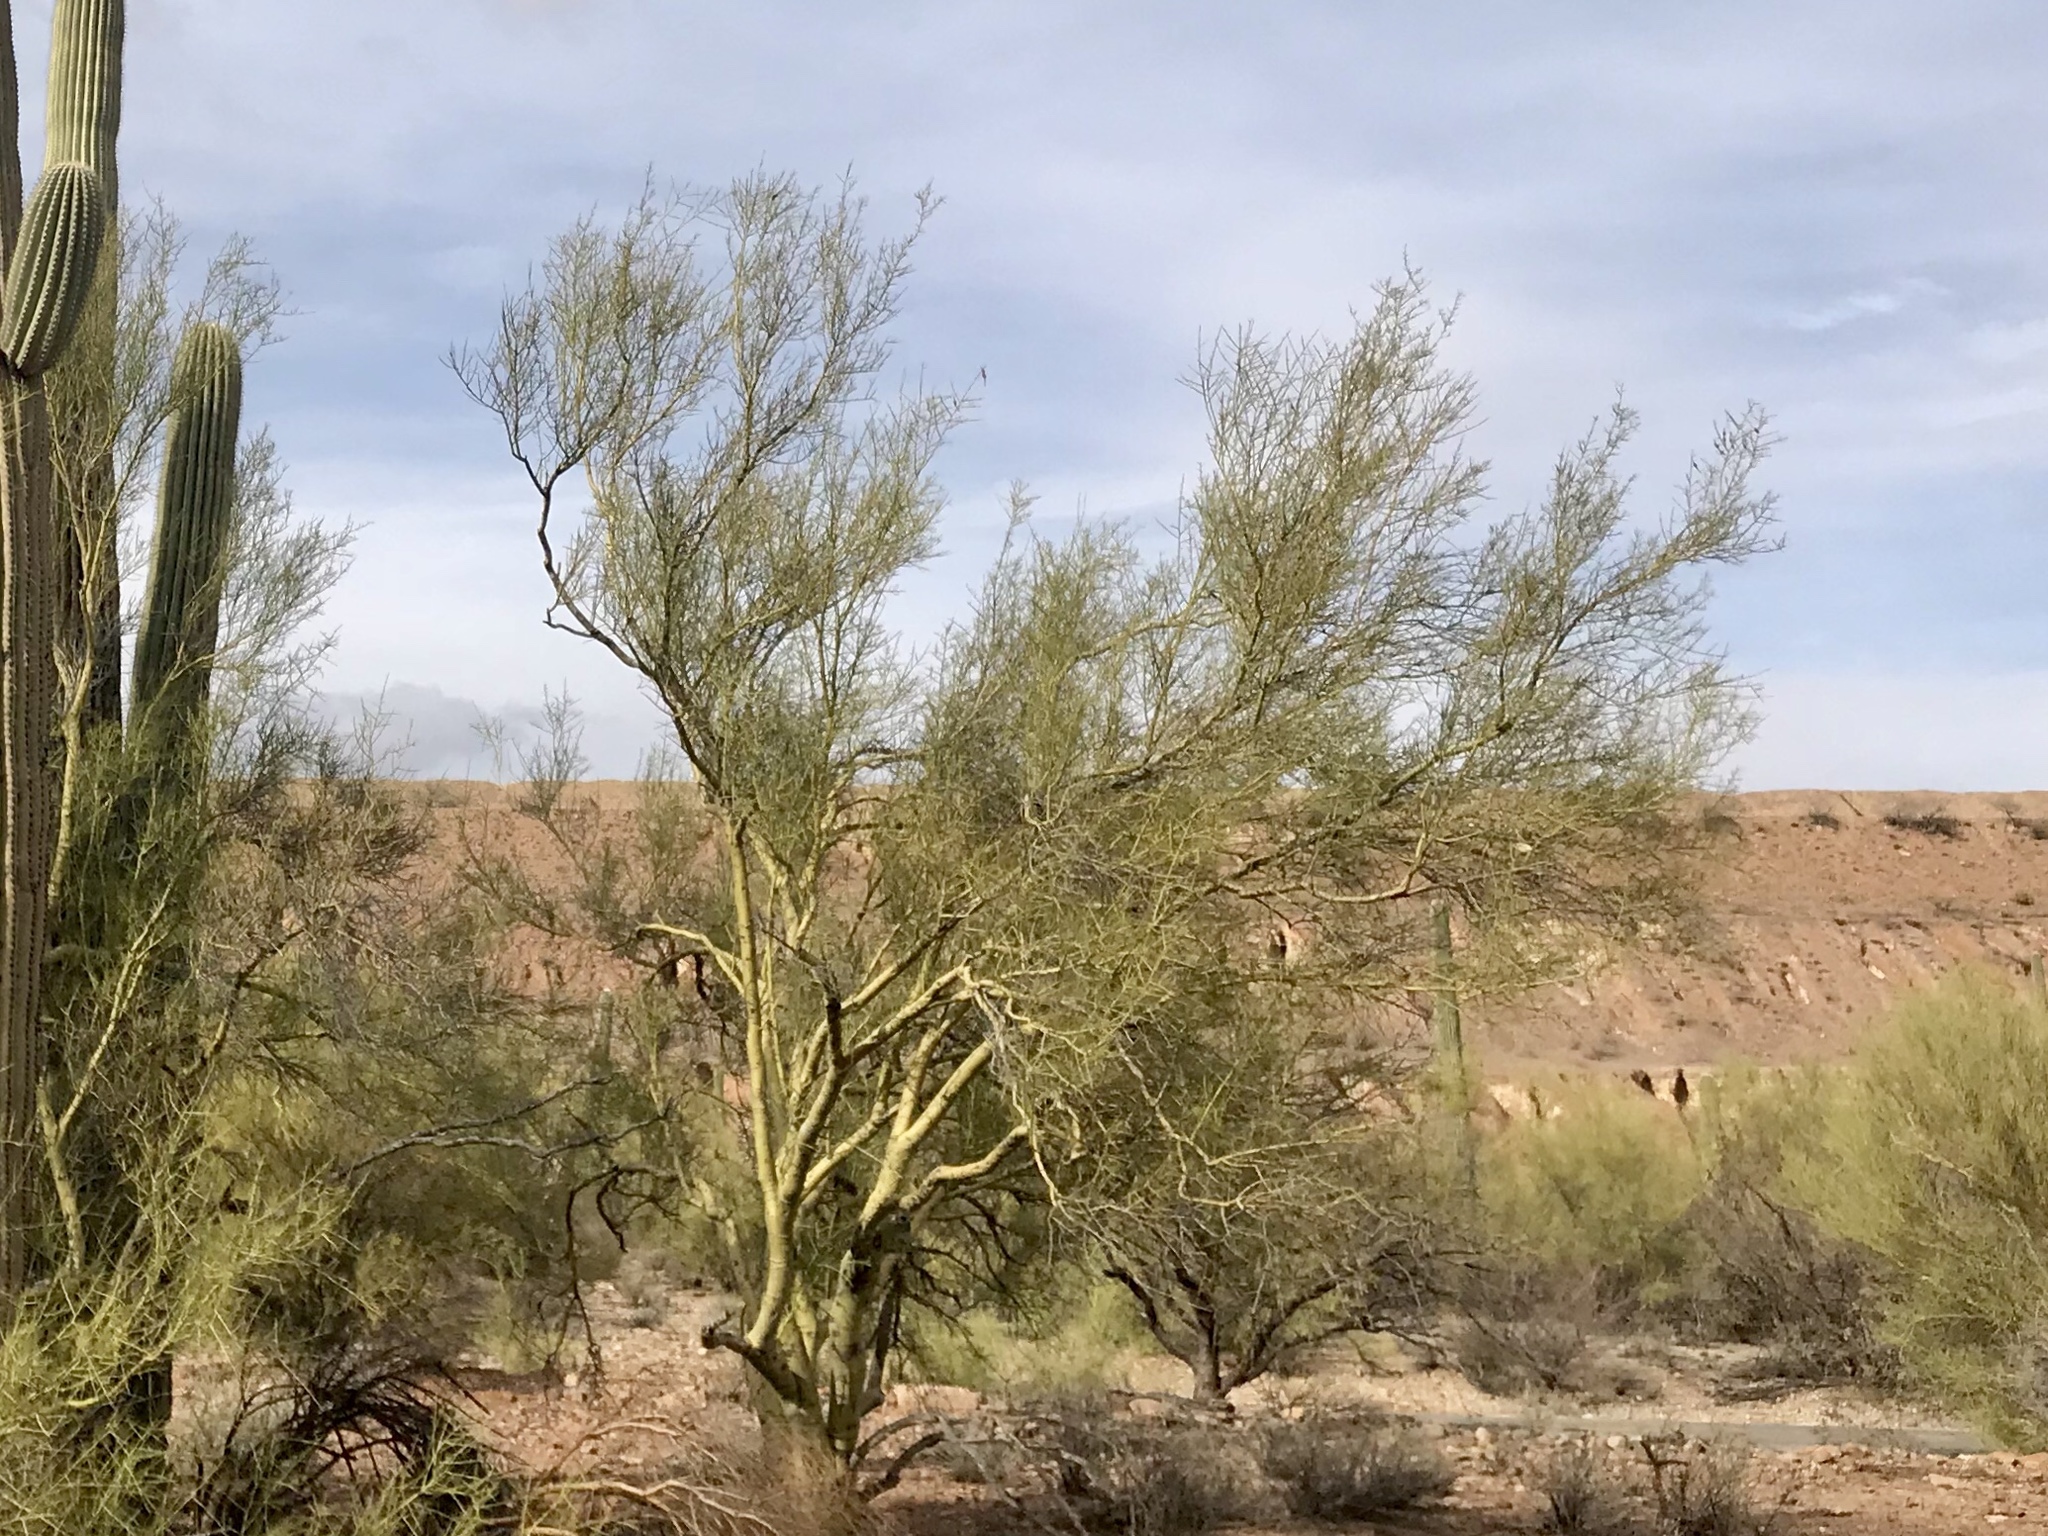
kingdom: Plantae
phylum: Tracheophyta
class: Magnoliopsida
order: Fabales
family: Fabaceae
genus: Parkinsonia
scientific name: Parkinsonia microphylla
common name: Yellow paloverde
